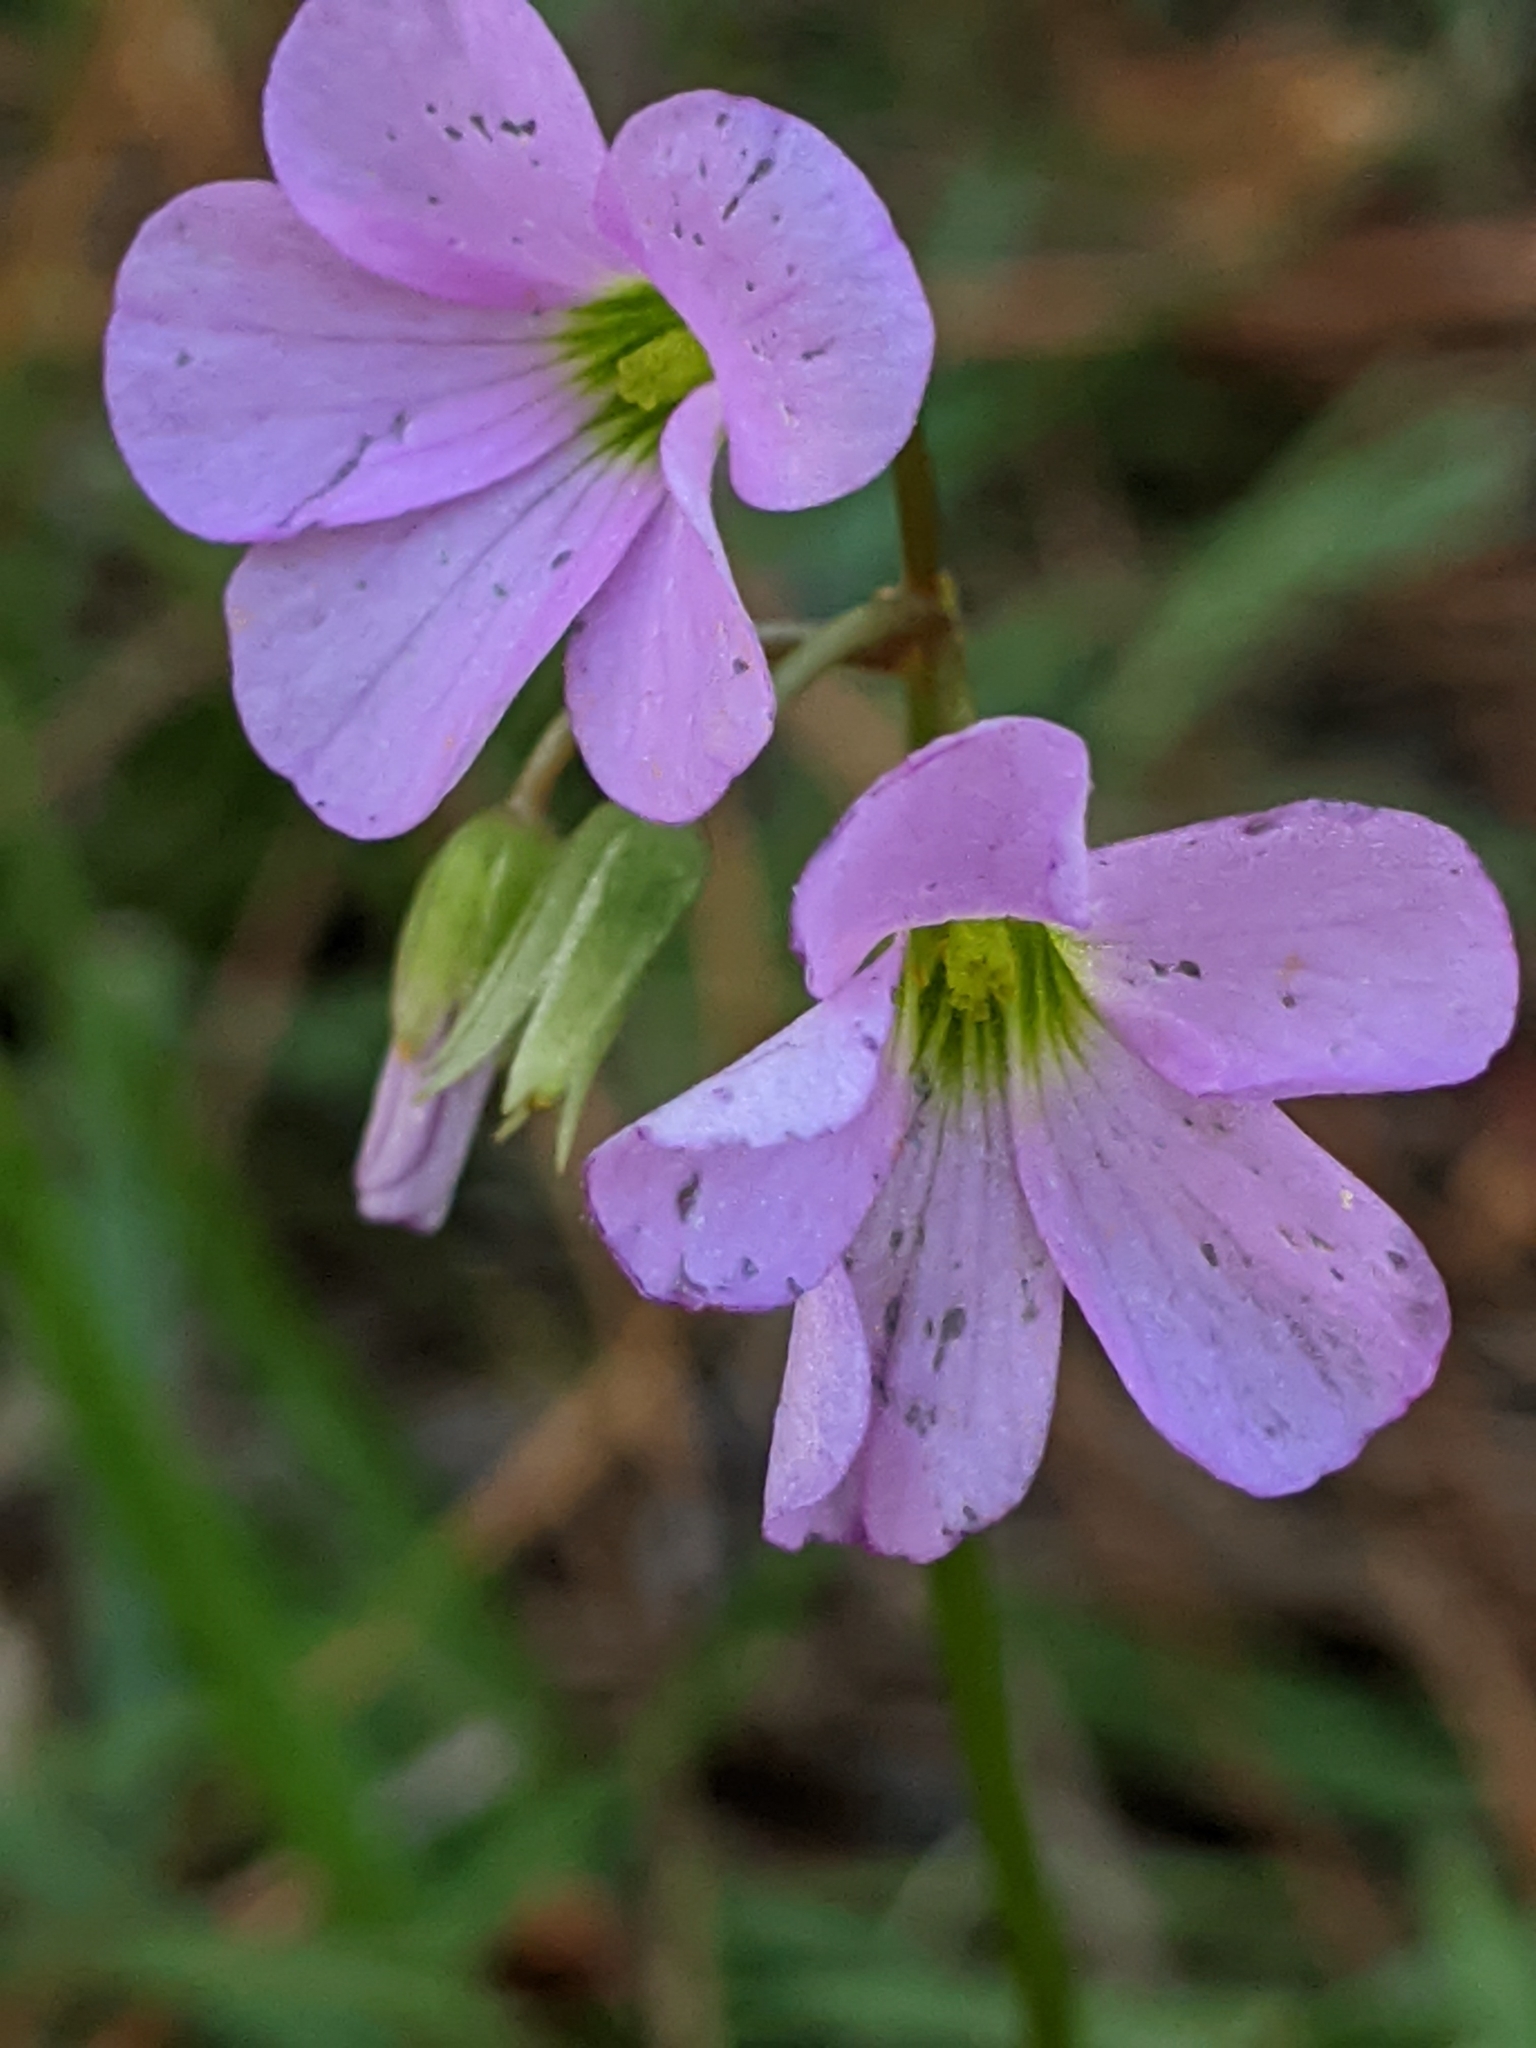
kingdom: Plantae
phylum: Tracheophyta
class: Magnoliopsida
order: Oxalidales
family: Oxalidaceae
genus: Oxalis
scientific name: Oxalis violacea
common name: Violet wood-sorrel
